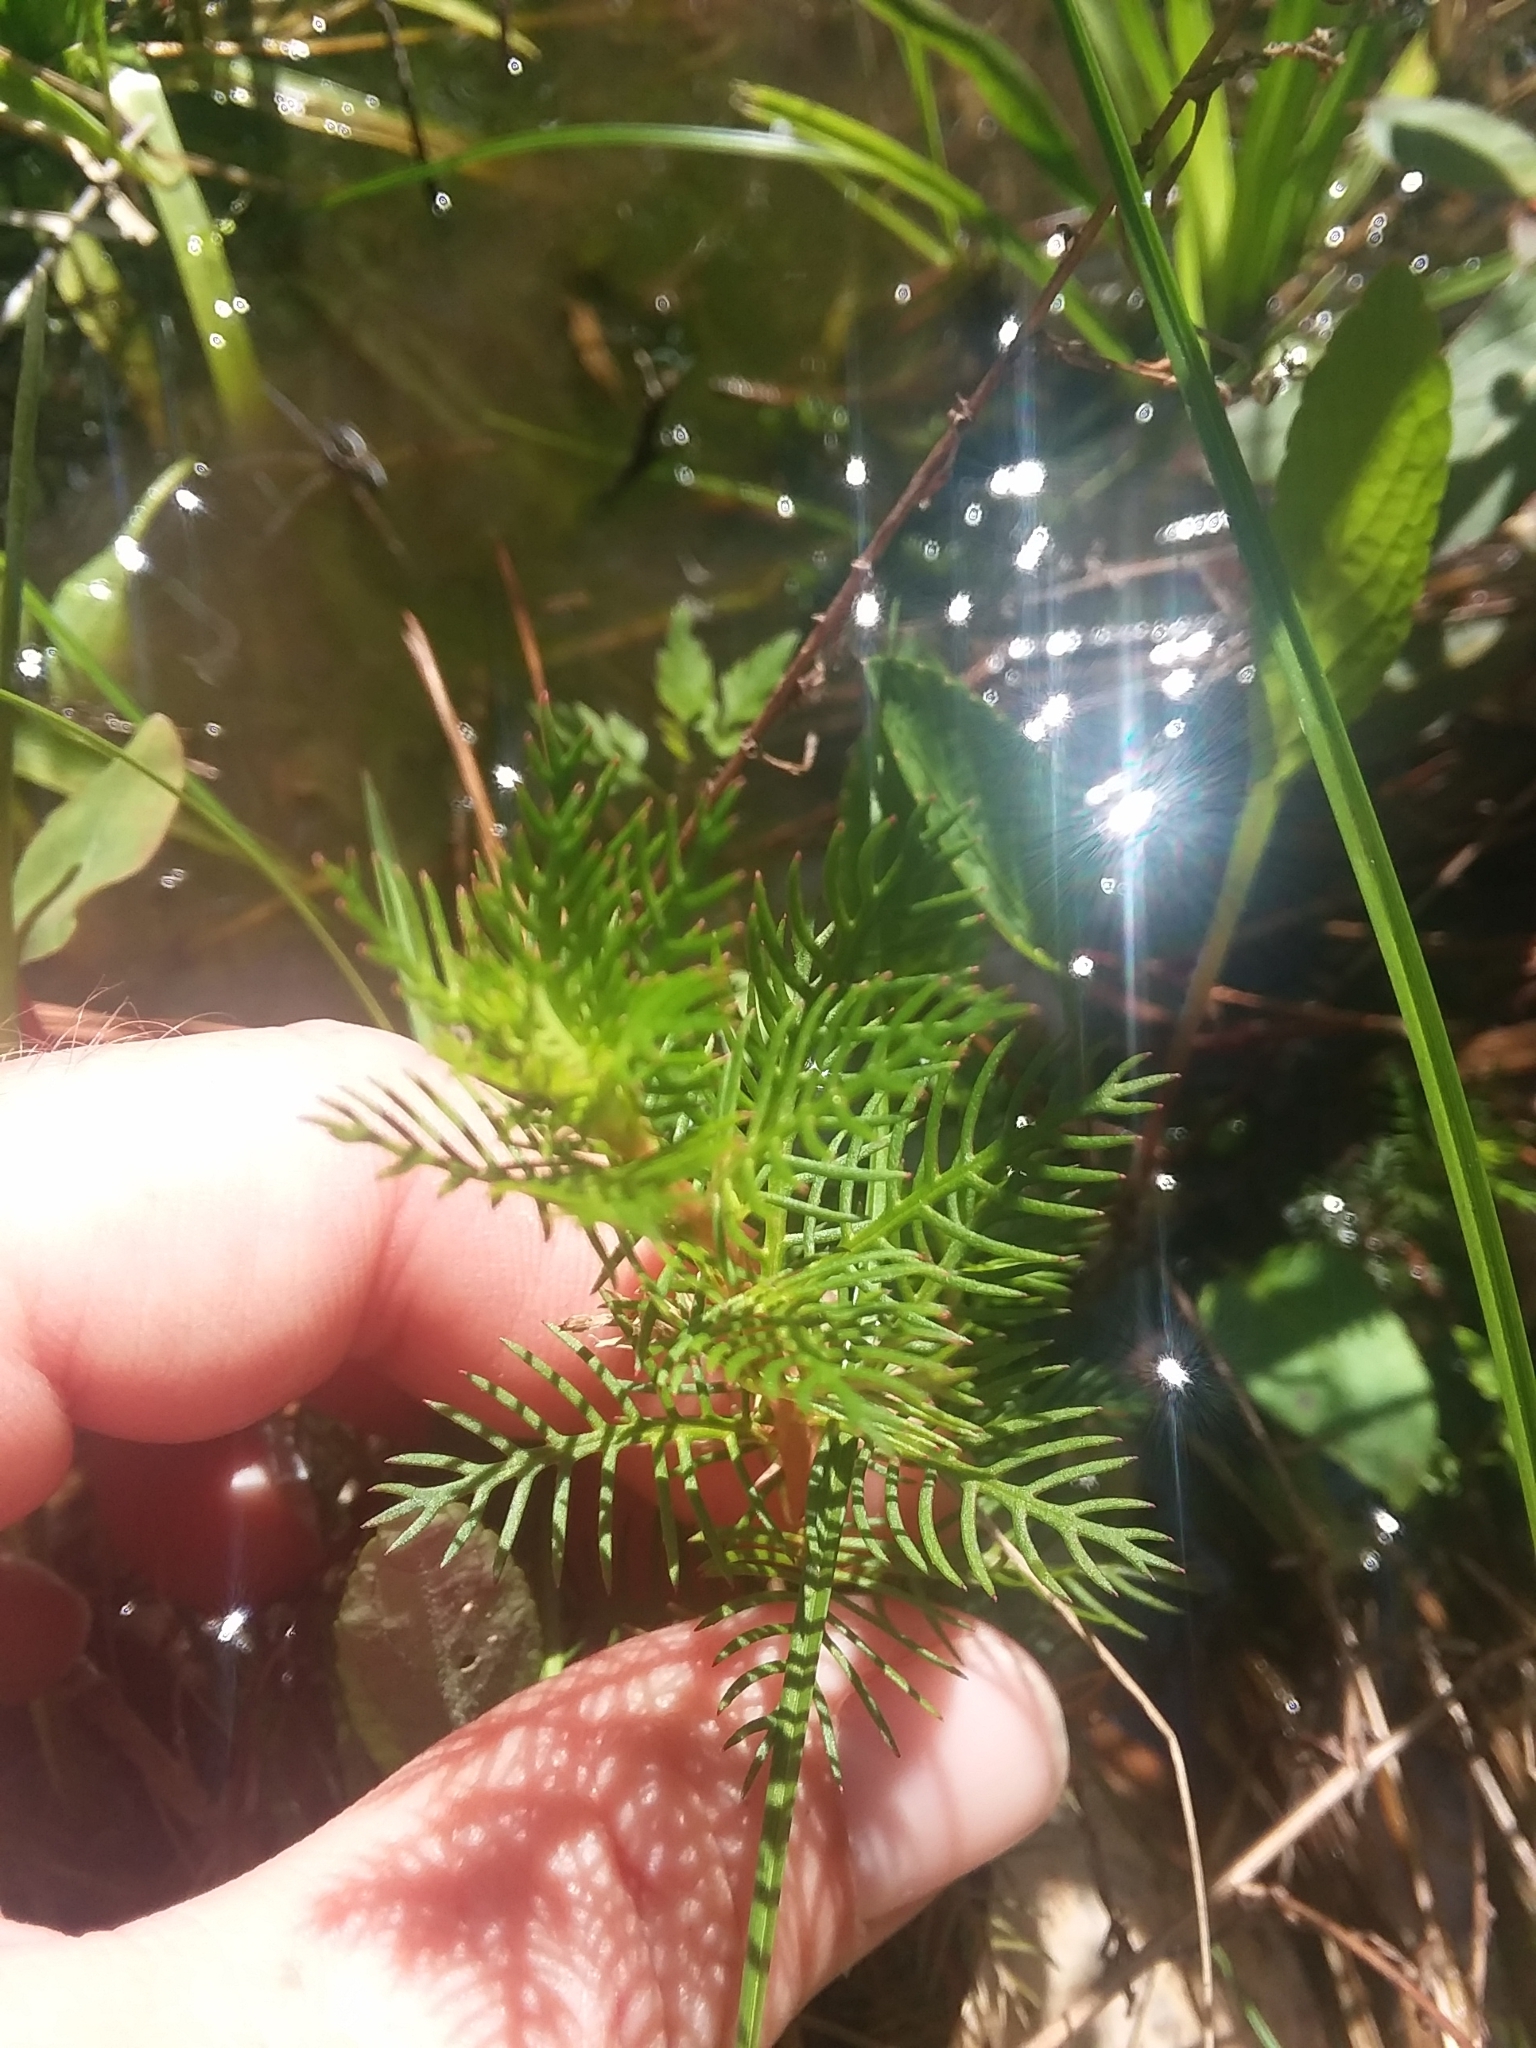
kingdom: Plantae
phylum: Tracheophyta
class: Magnoliopsida
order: Saxifragales
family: Haloragaceae
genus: Proserpinaca
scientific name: Proserpinaca pectinata
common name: Comb-leaved mermaidweed
